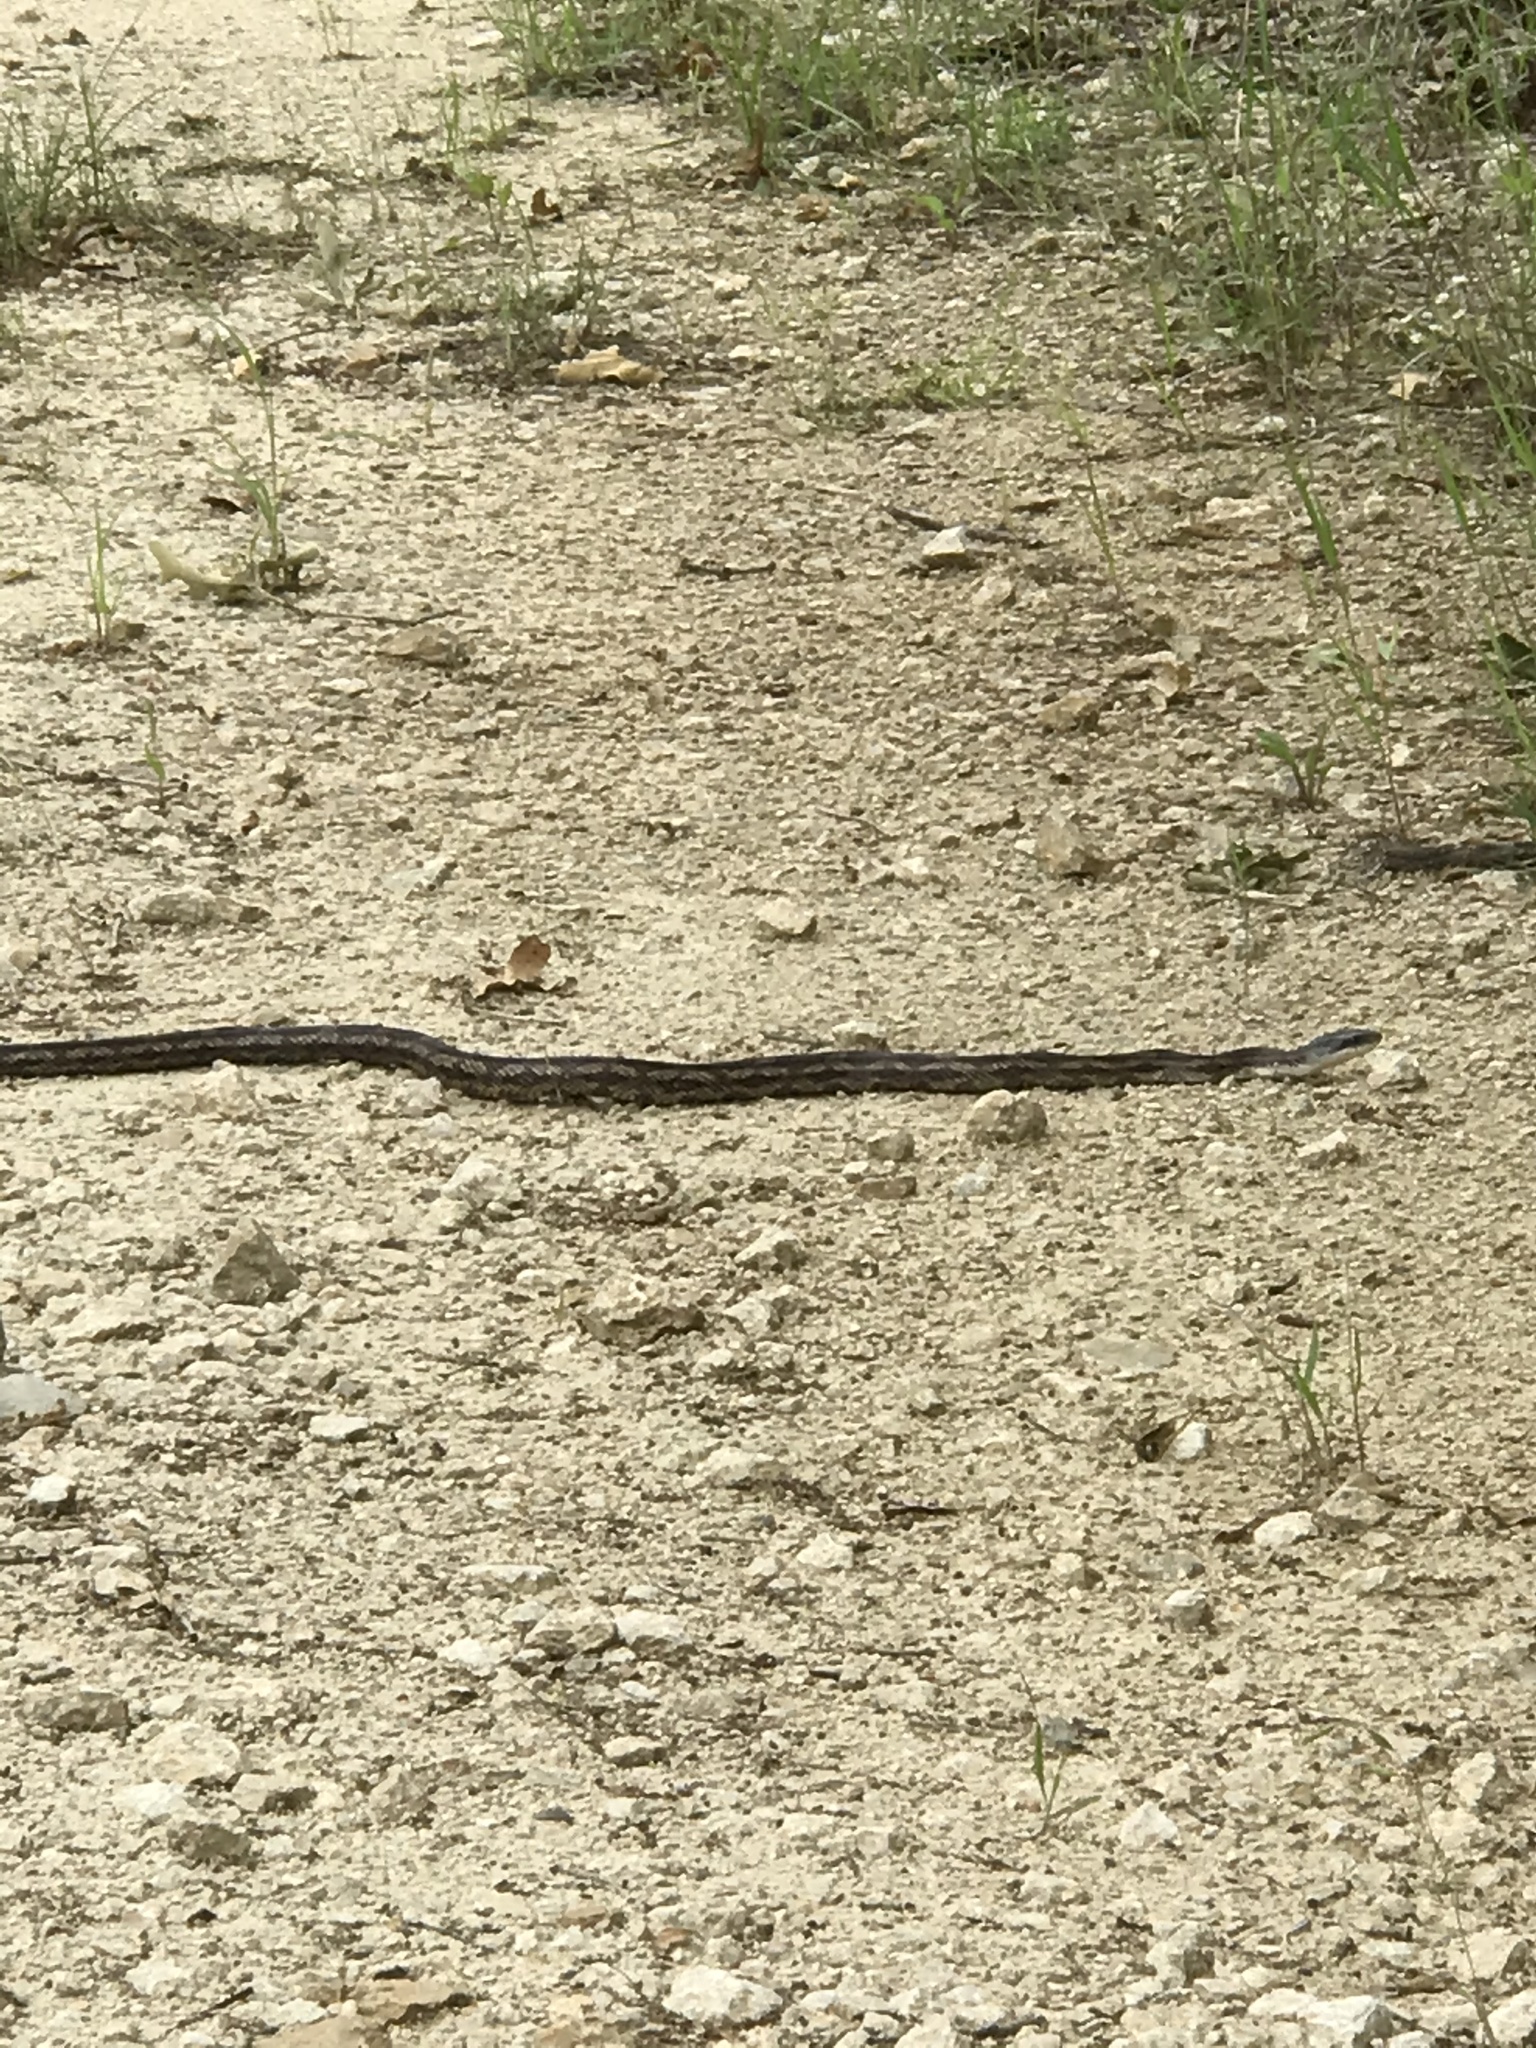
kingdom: Animalia
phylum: Chordata
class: Squamata
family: Colubridae
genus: Pantherophis
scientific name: Pantherophis obsoletus
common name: Black rat snake
